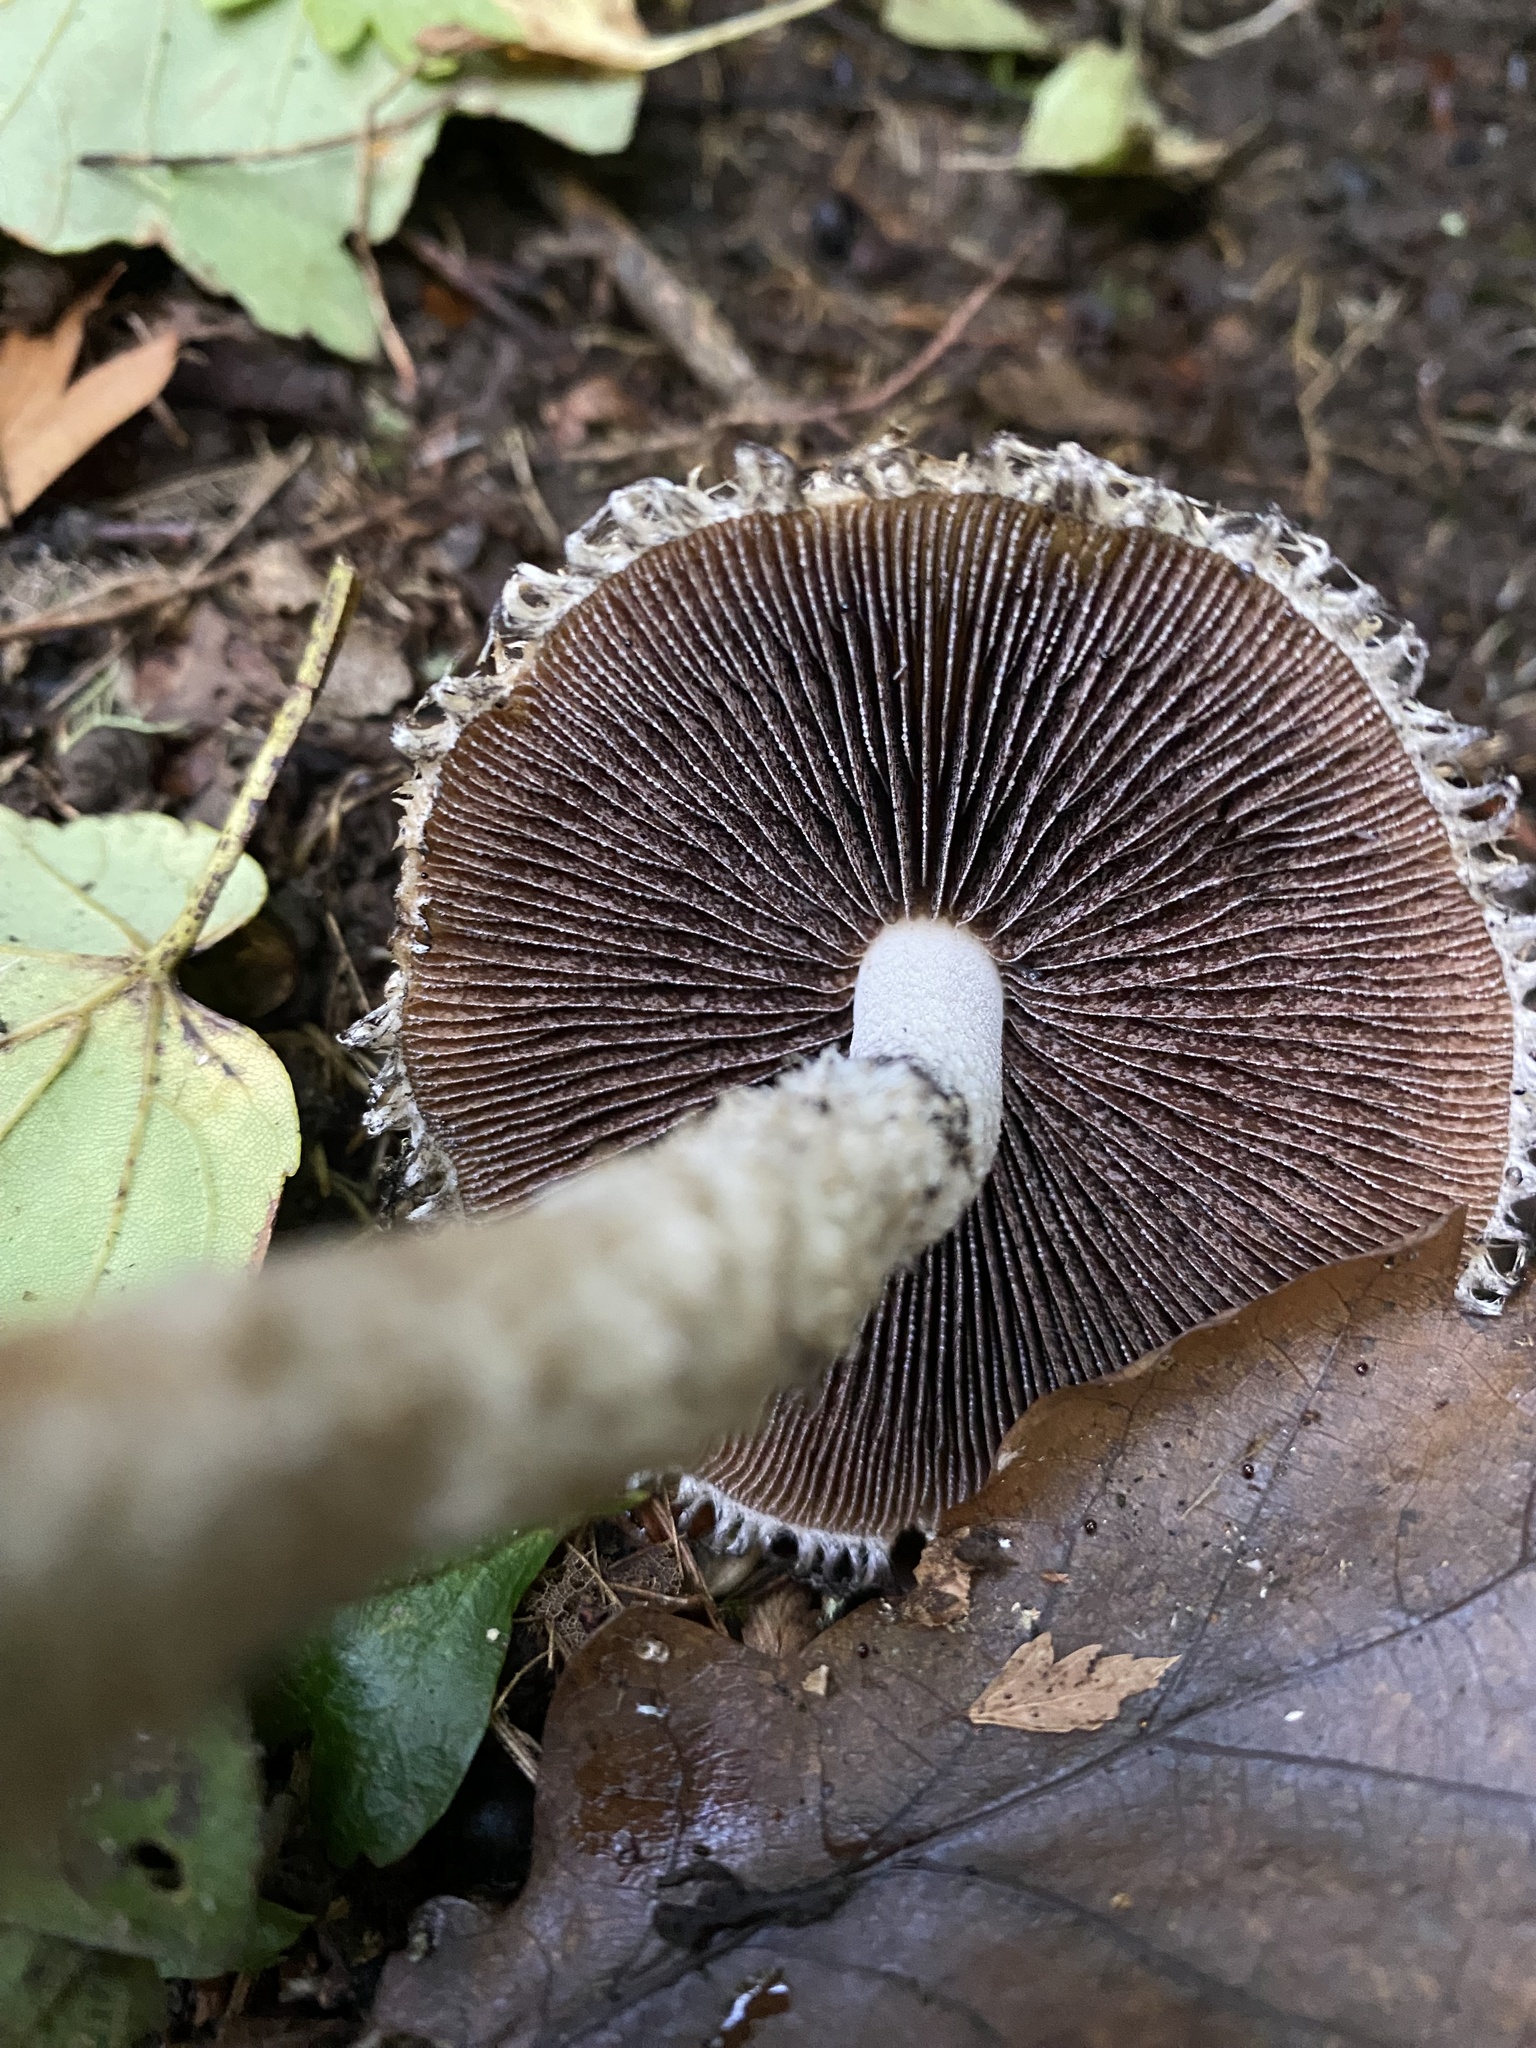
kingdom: Fungi
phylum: Basidiomycota
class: Agaricomycetes
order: Agaricales
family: Psathyrellaceae
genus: Psathyrella
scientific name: Psathyrella asperospora
